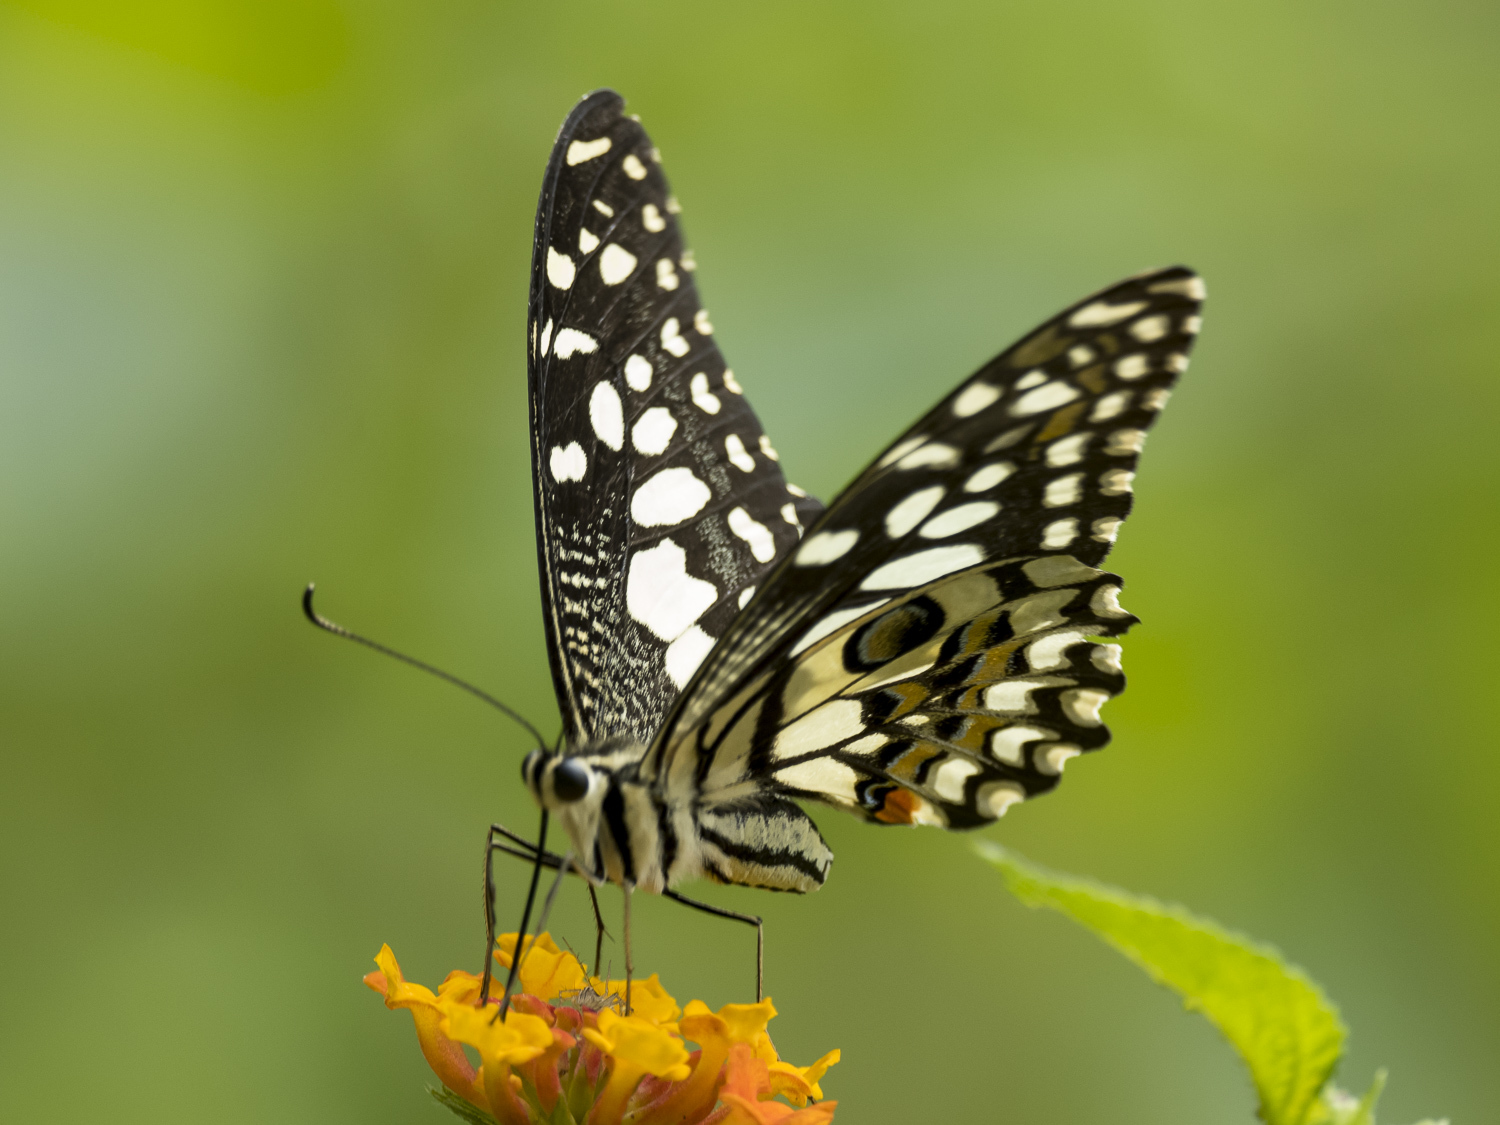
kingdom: Animalia
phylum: Arthropoda
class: Insecta
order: Lepidoptera
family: Papilionidae
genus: Papilio
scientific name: Papilio demoleus
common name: Lime butterfly
